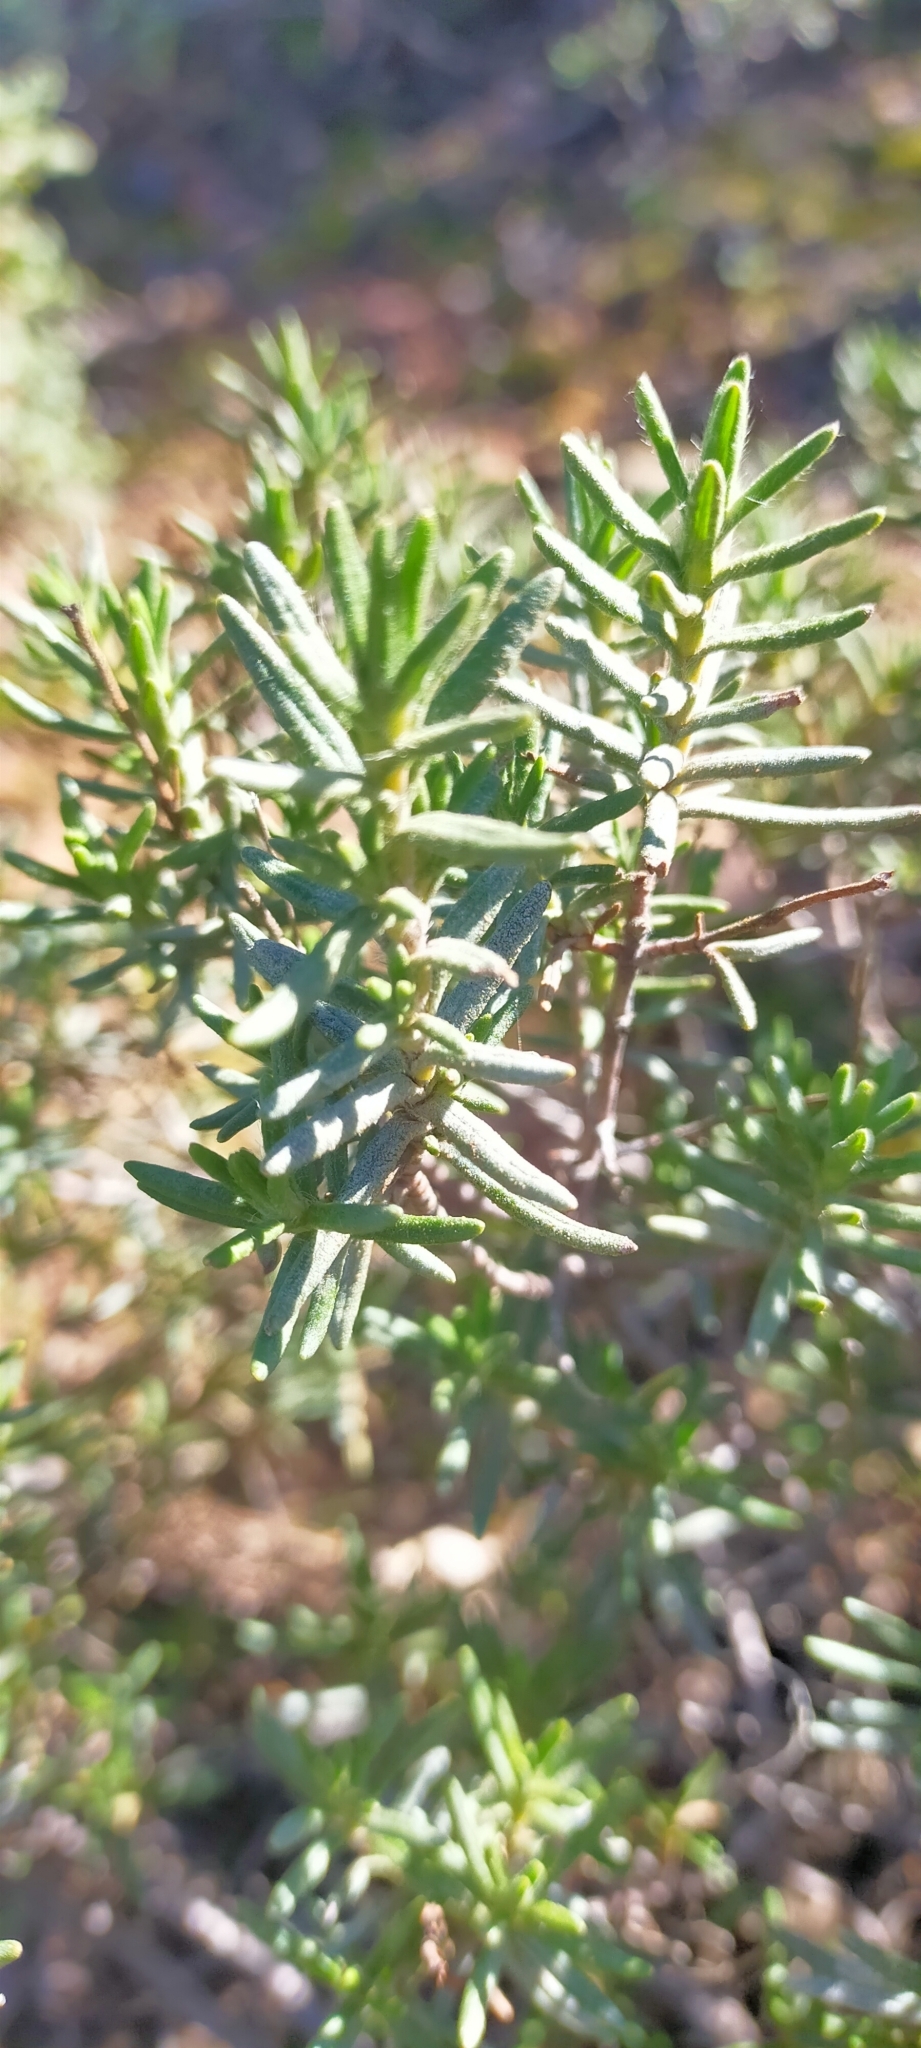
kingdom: Plantae
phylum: Tracheophyta
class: Magnoliopsida
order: Malvales
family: Cistaceae
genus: Halimium
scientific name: Halimium umbellatum
